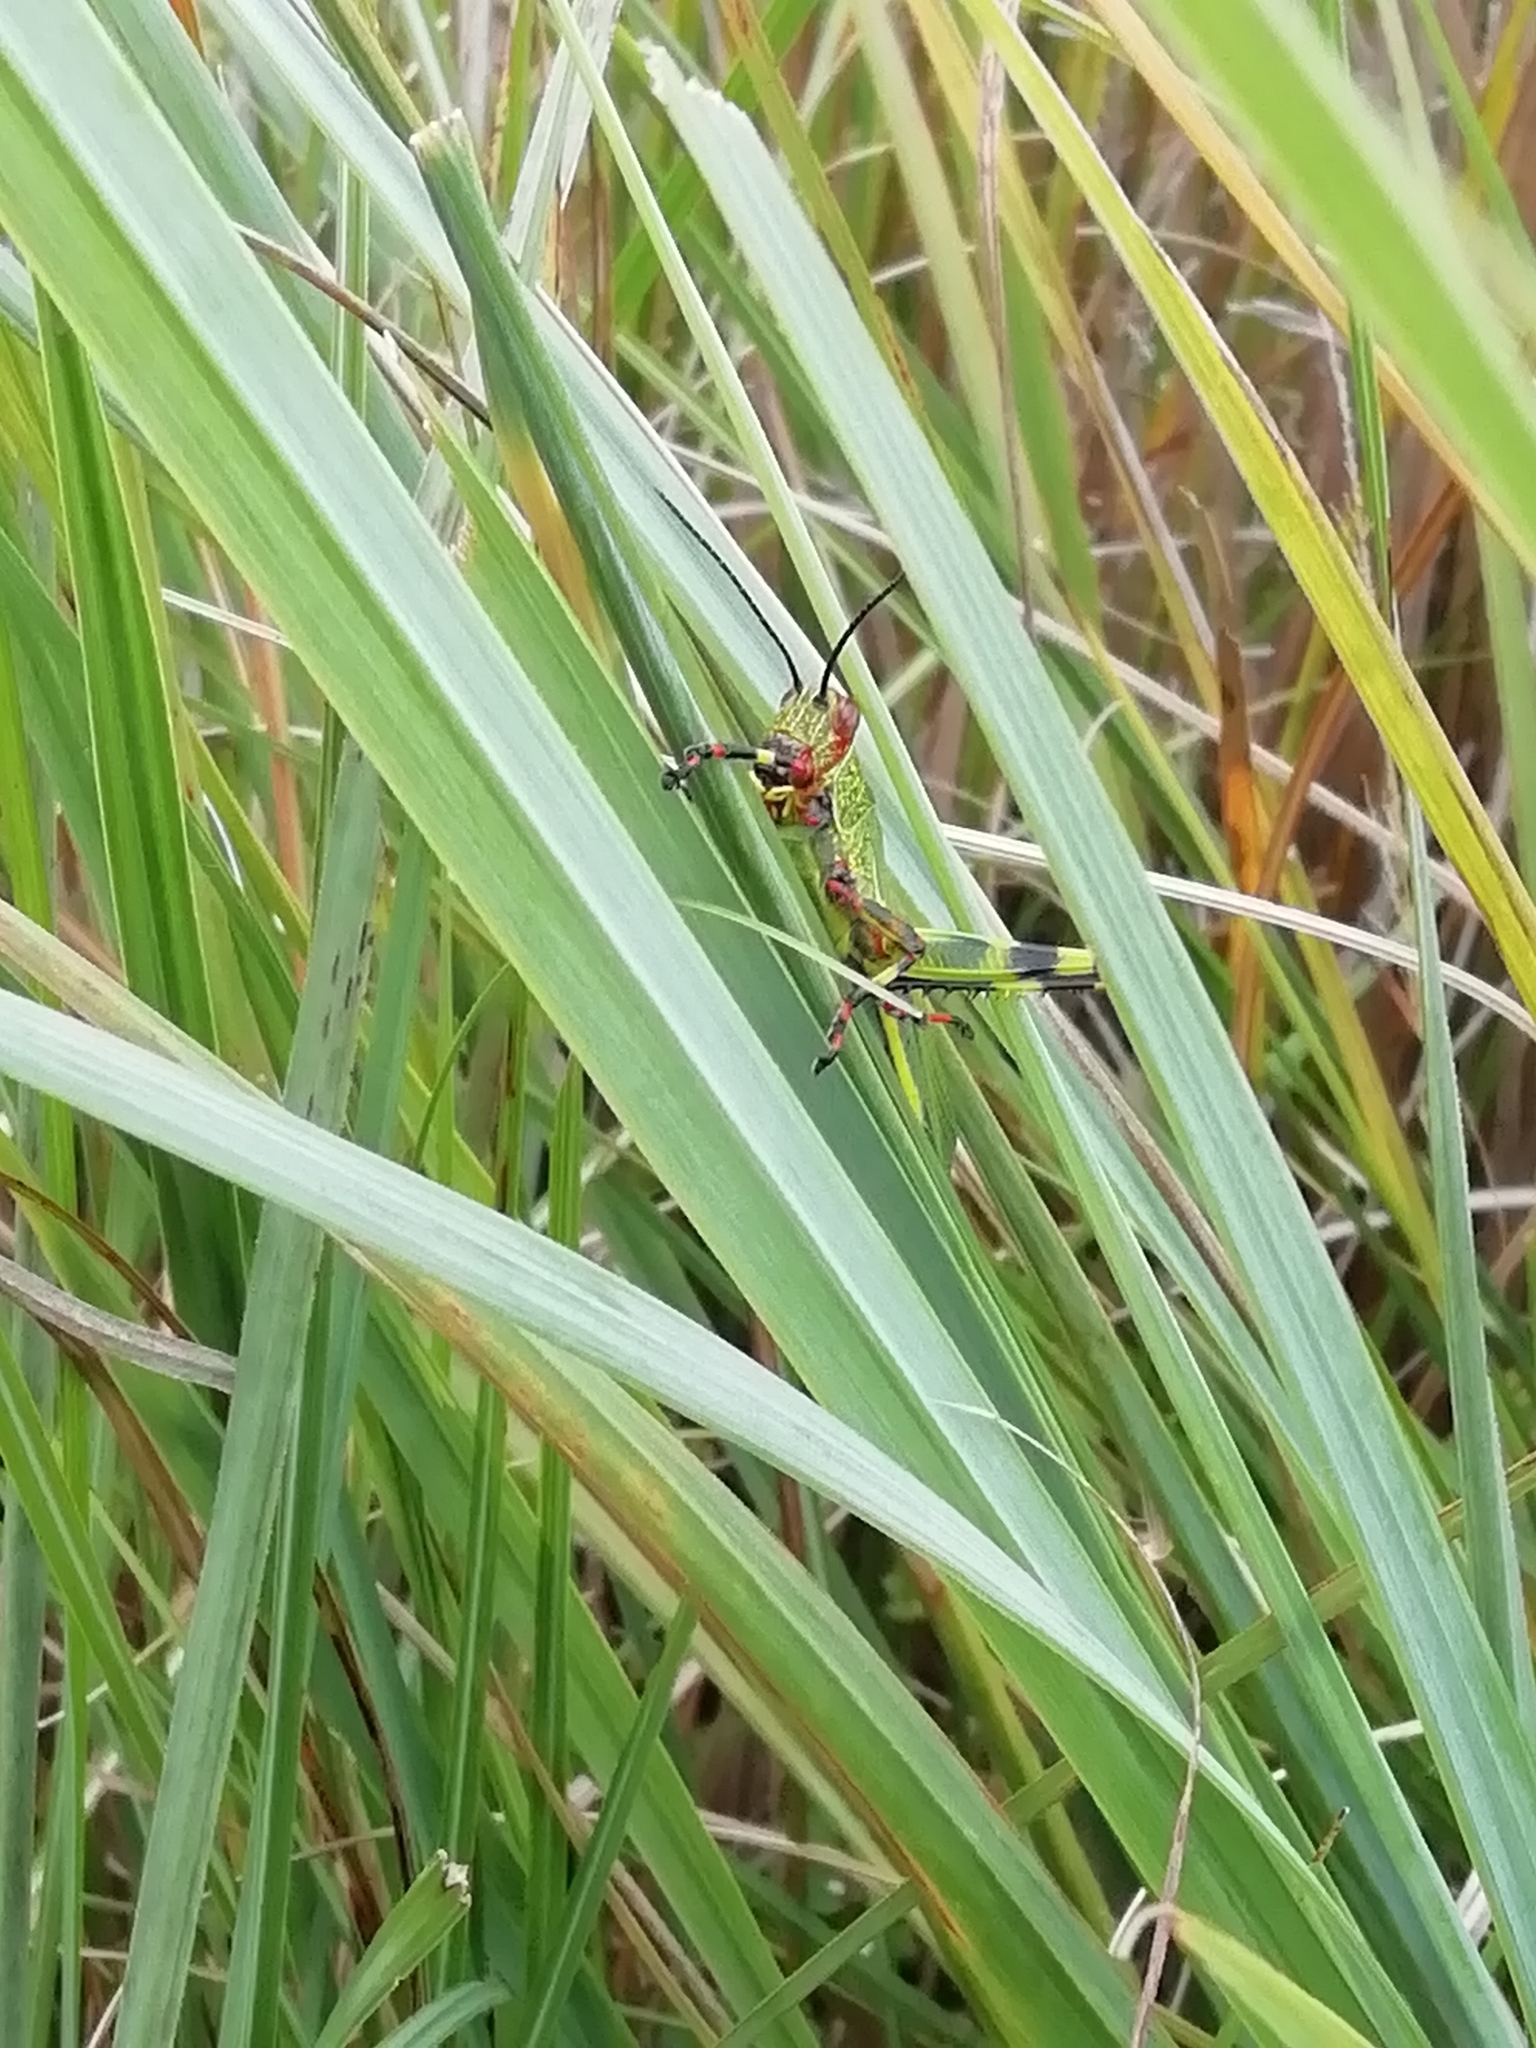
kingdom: Animalia
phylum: Arthropoda
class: Insecta
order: Orthoptera
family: Romaleidae
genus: Zoniopoda
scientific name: Zoniopoda tarsata
